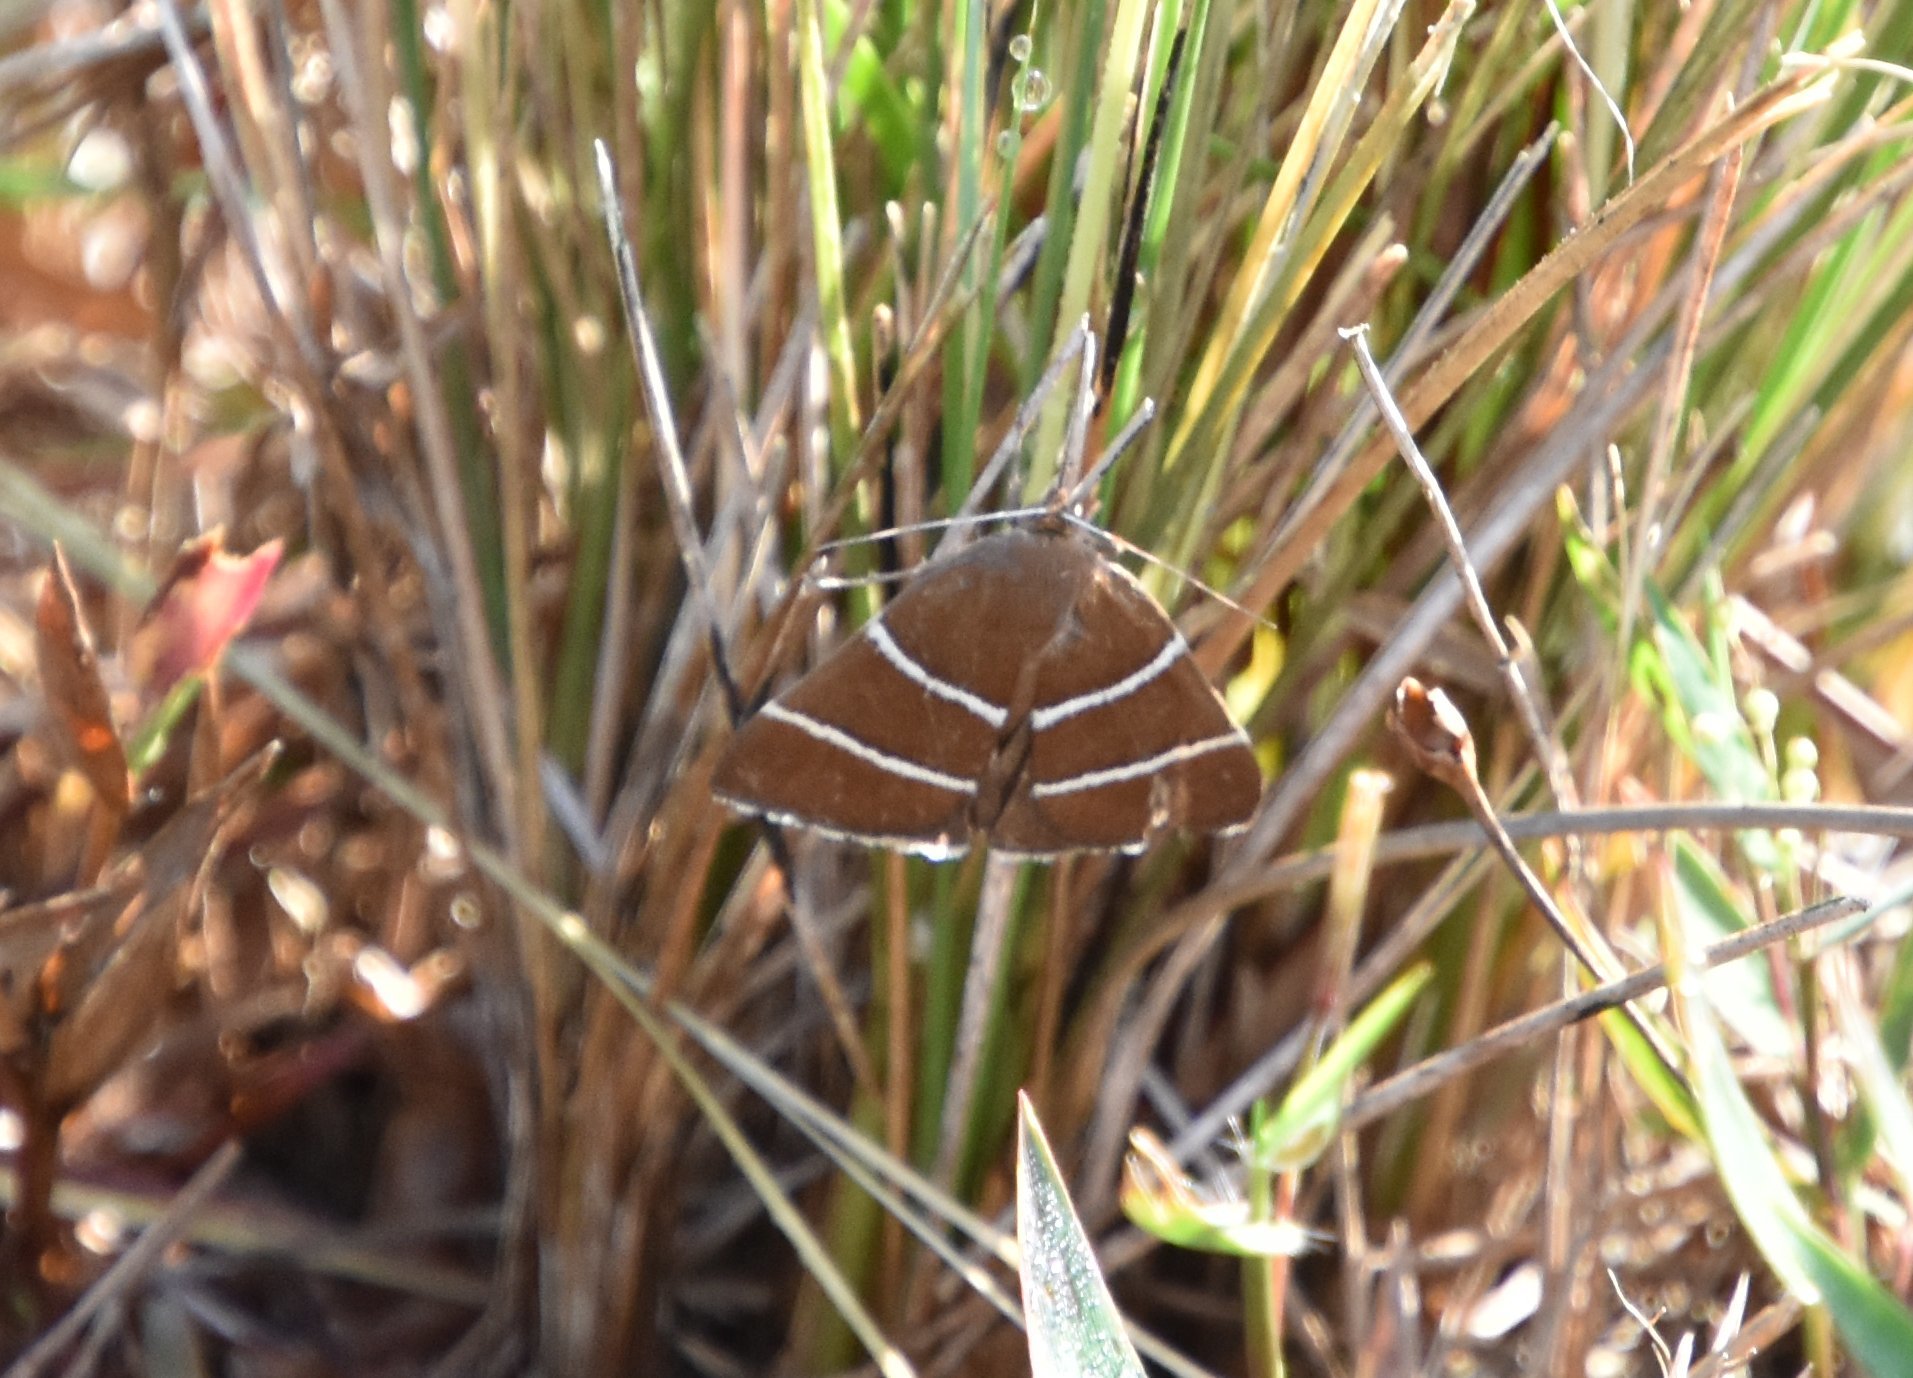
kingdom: Animalia
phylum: Arthropoda
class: Insecta
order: Lepidoptera
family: Erebidae
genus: Argyrostrotis
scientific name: Argyrostrotis quadrifilaris
